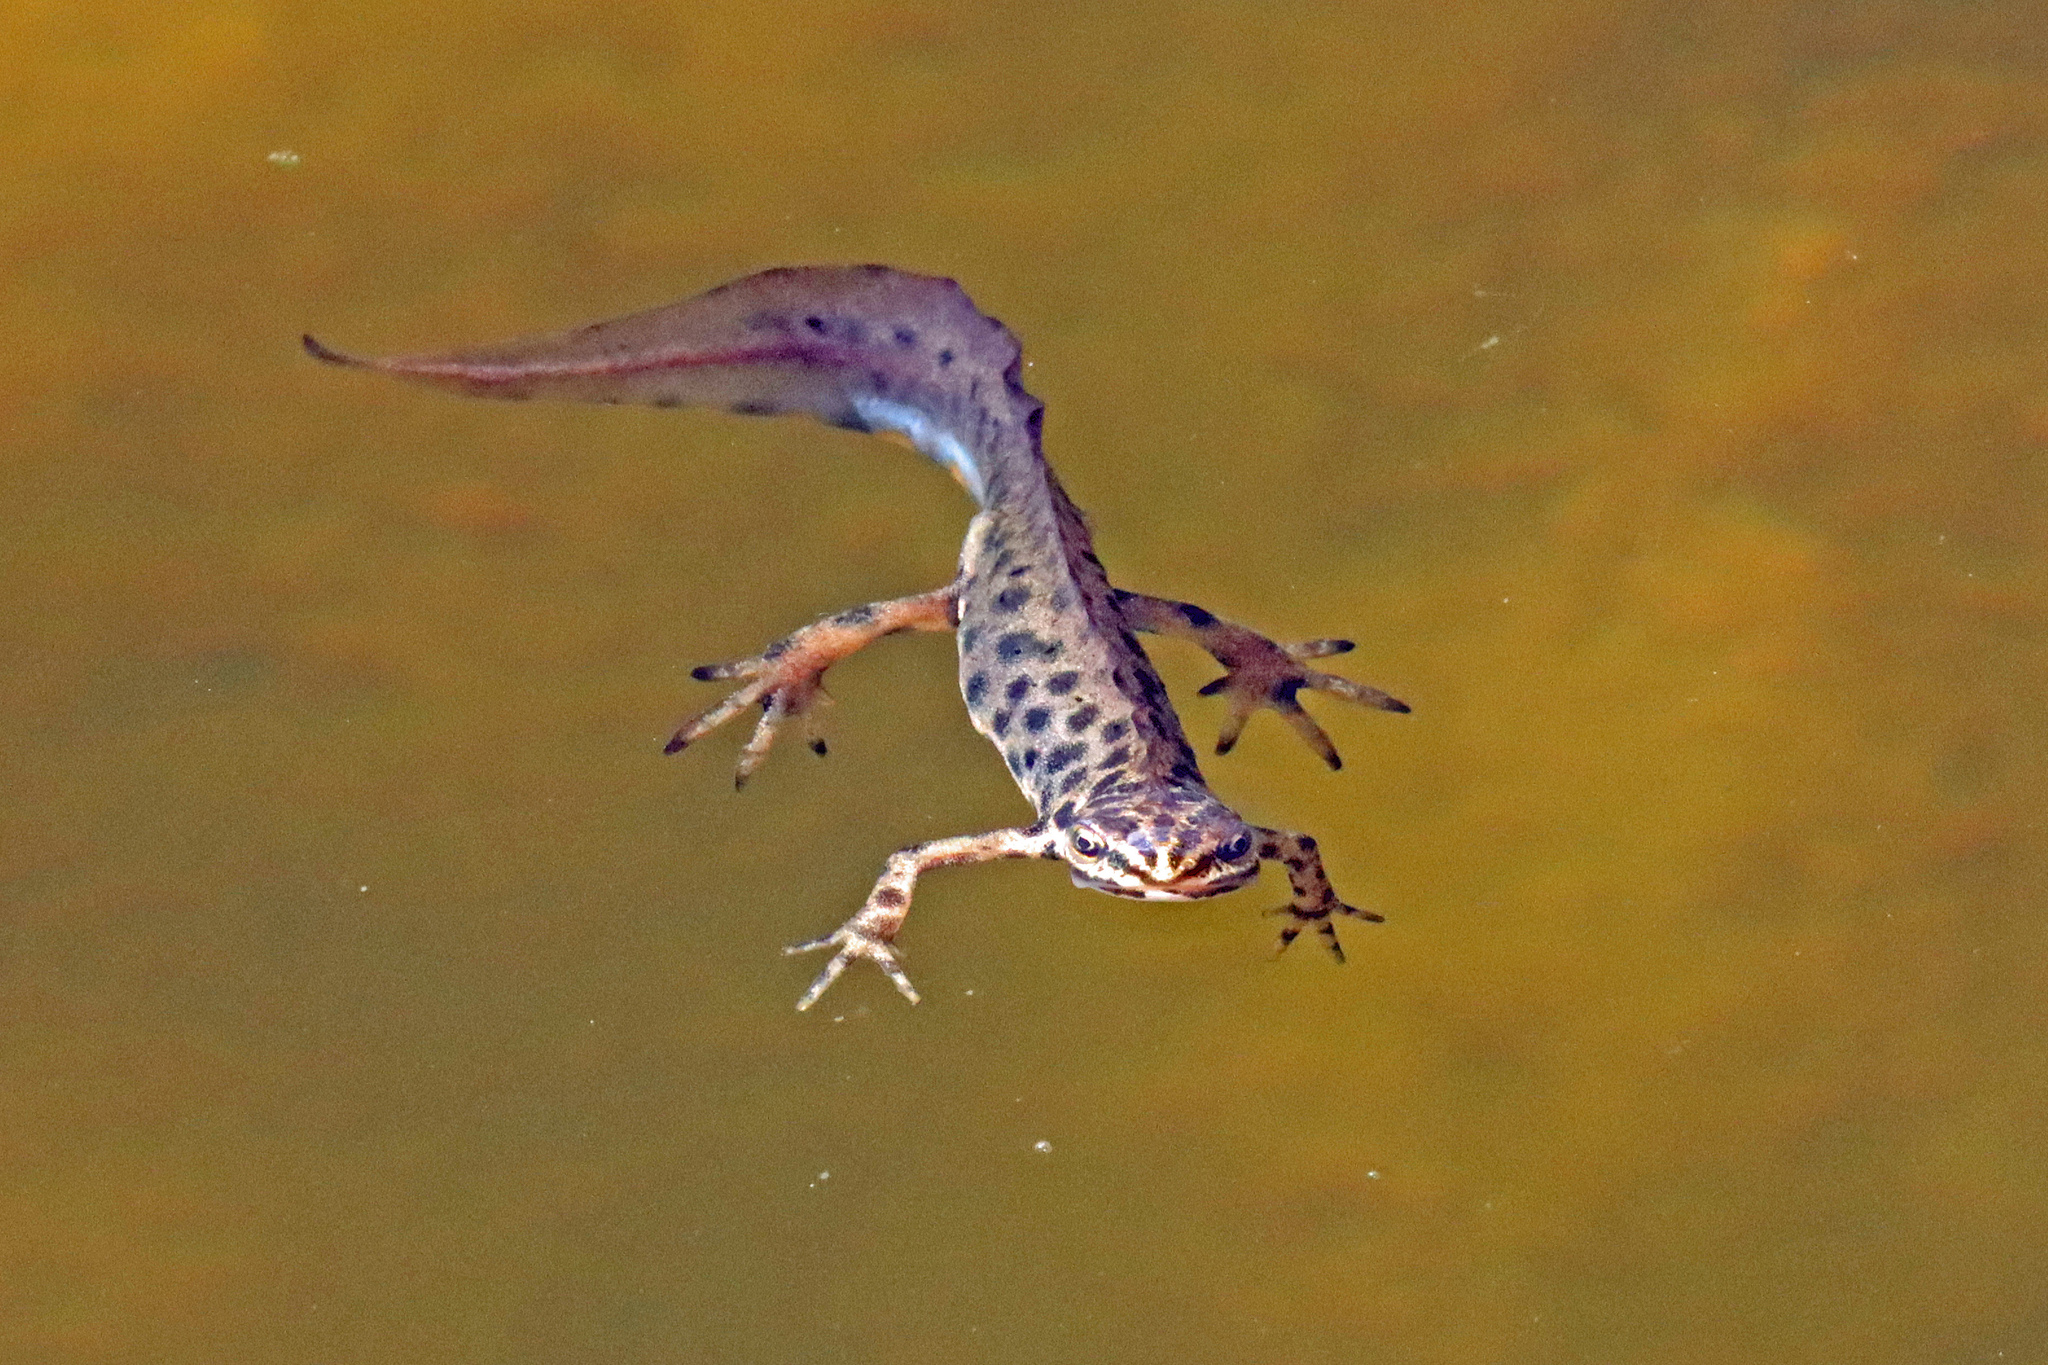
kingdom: Animalia
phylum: Chordata
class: Amphibia
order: Caudata
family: Salamandridae
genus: Lissotriton
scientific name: Lissotriton vulgaris
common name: Smooth newt
